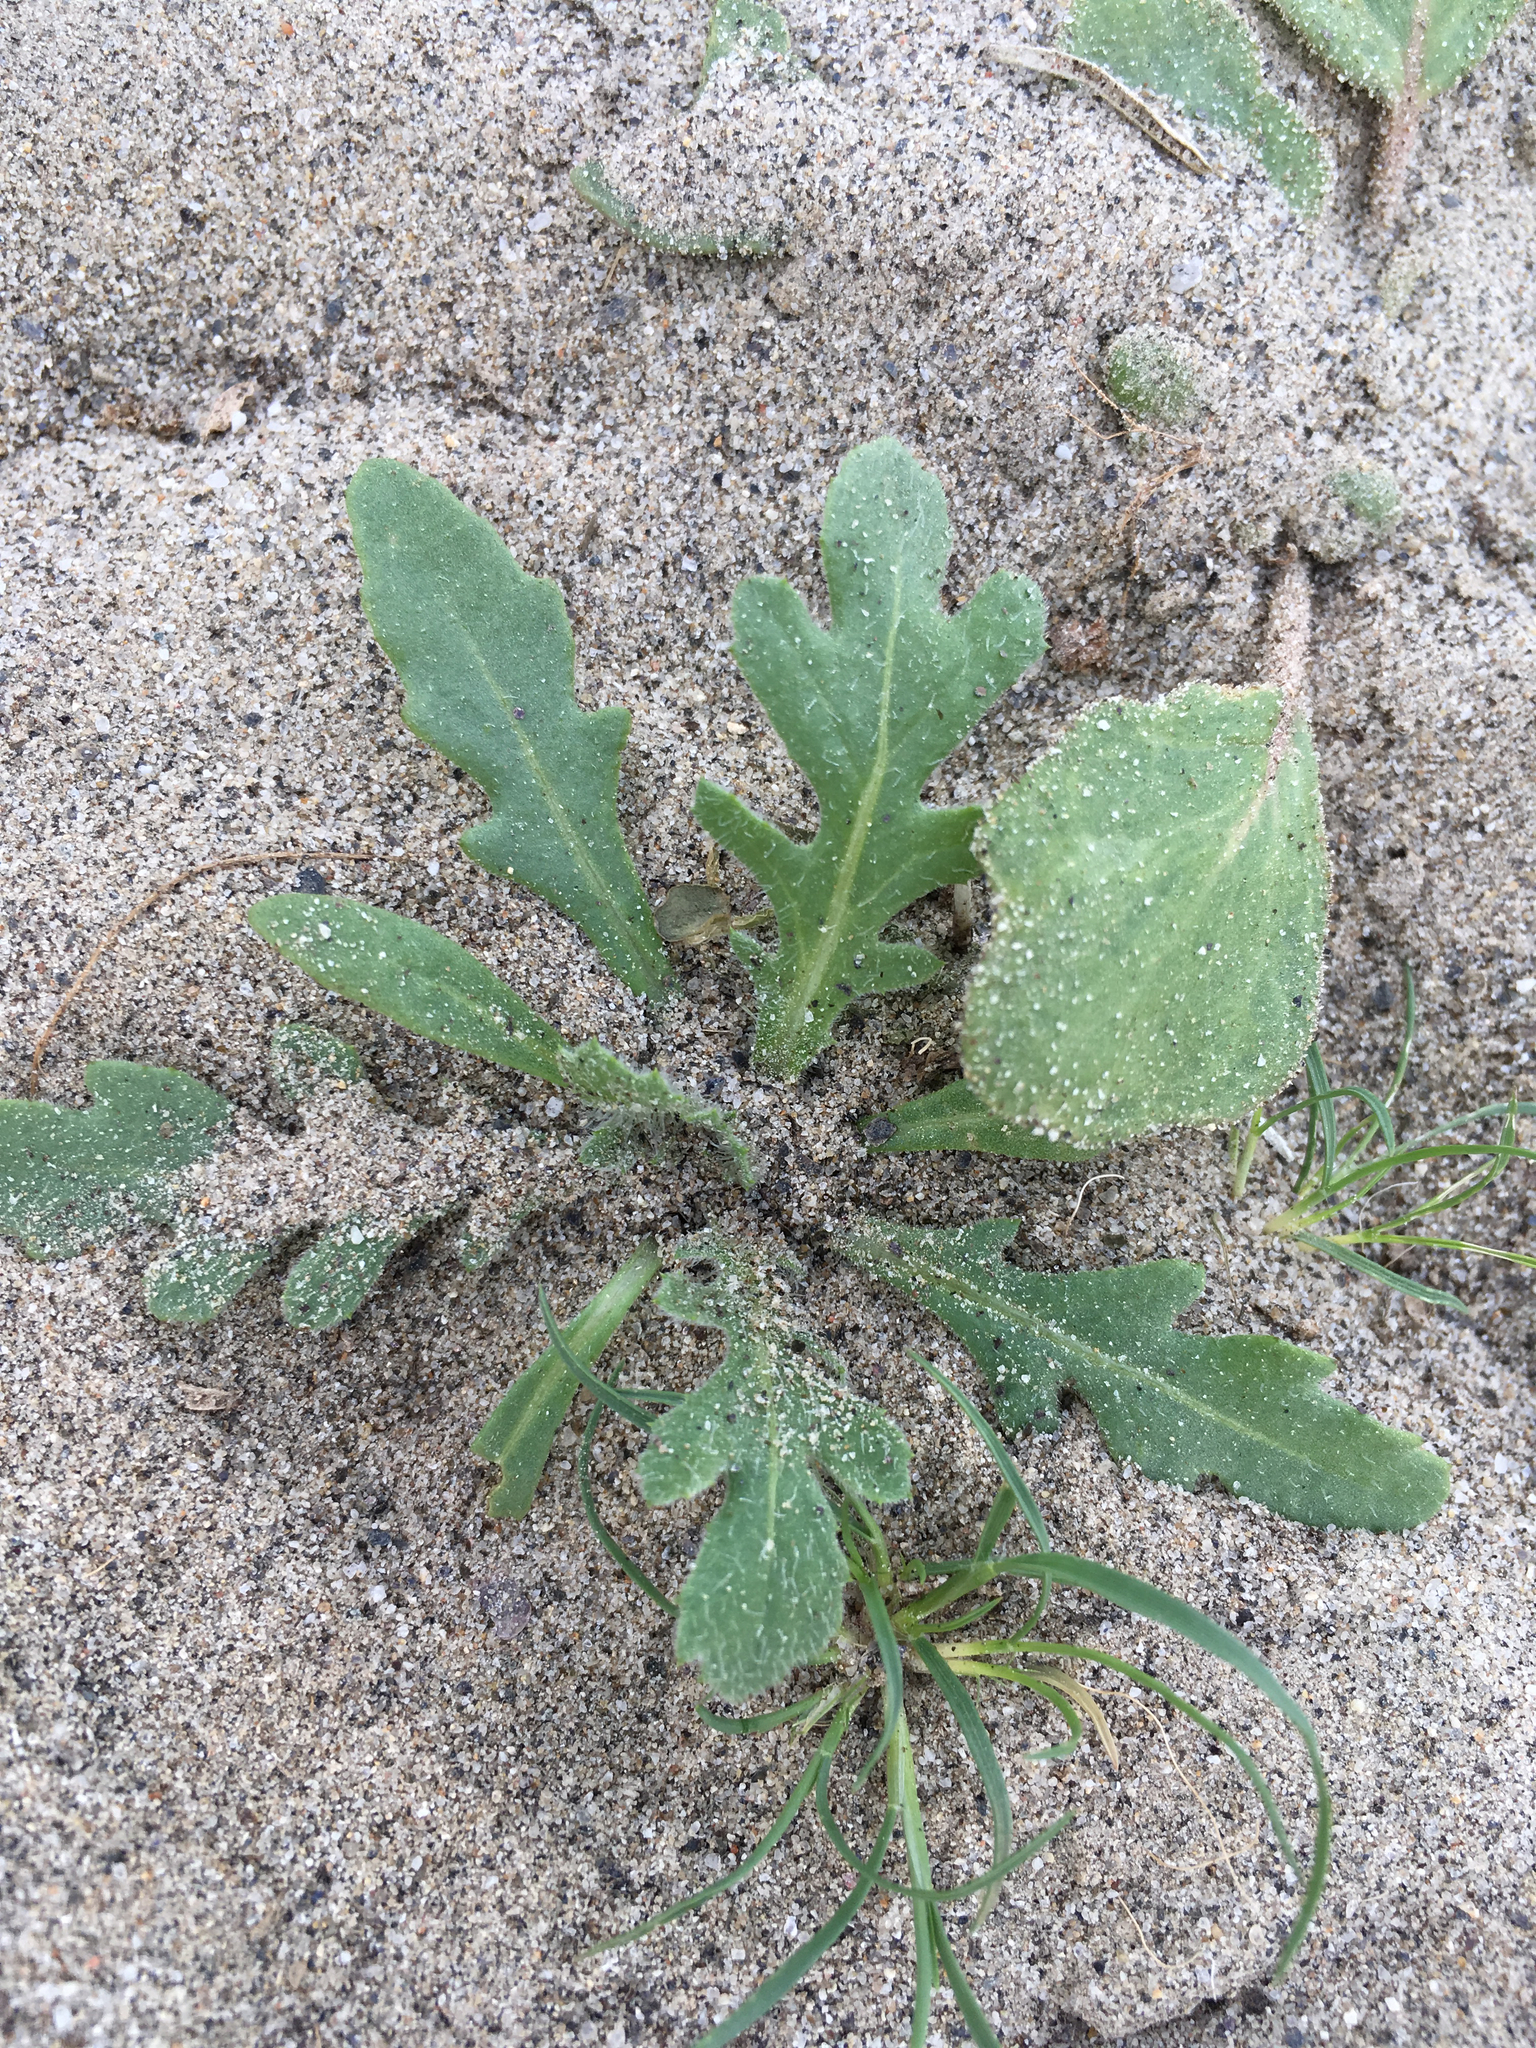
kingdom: Plantae
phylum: Tracheophyta
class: Magnoliopsida
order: Asterales
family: Asteraceae
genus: Volutaria
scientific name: Volutaria tubuliflora
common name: Desert knapweed
